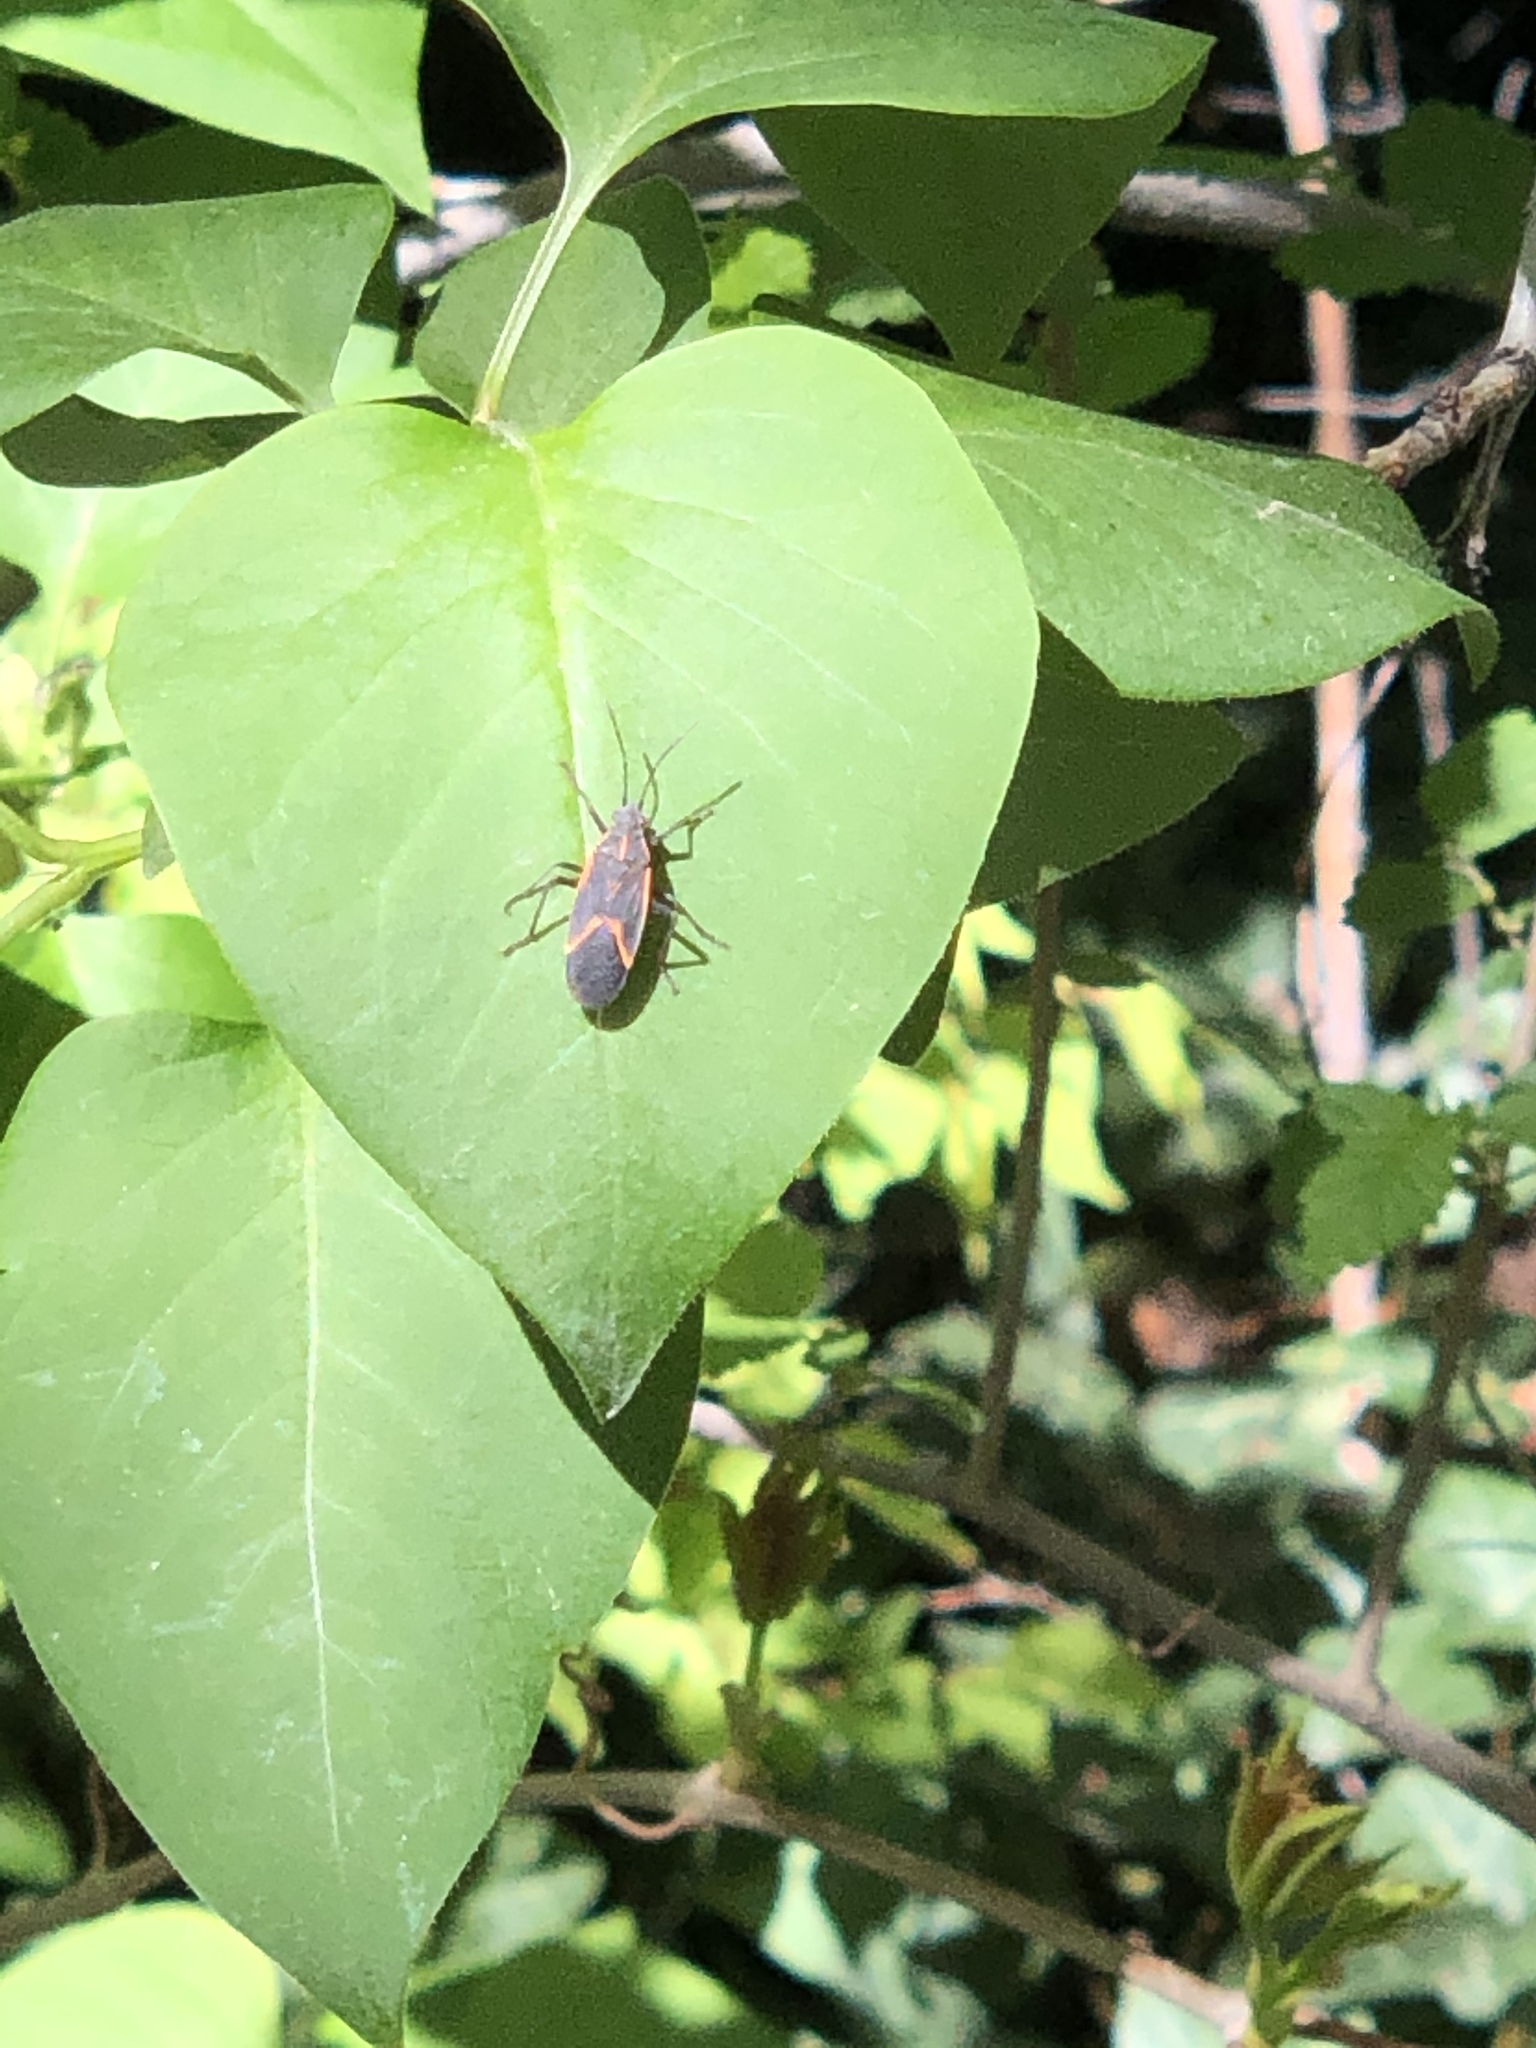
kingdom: Animalia
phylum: Arthropoda
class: Insecta
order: Hemiptera
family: Rhopalidae
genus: Boisea
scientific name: Boisea trivittata
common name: Boxelder bug
